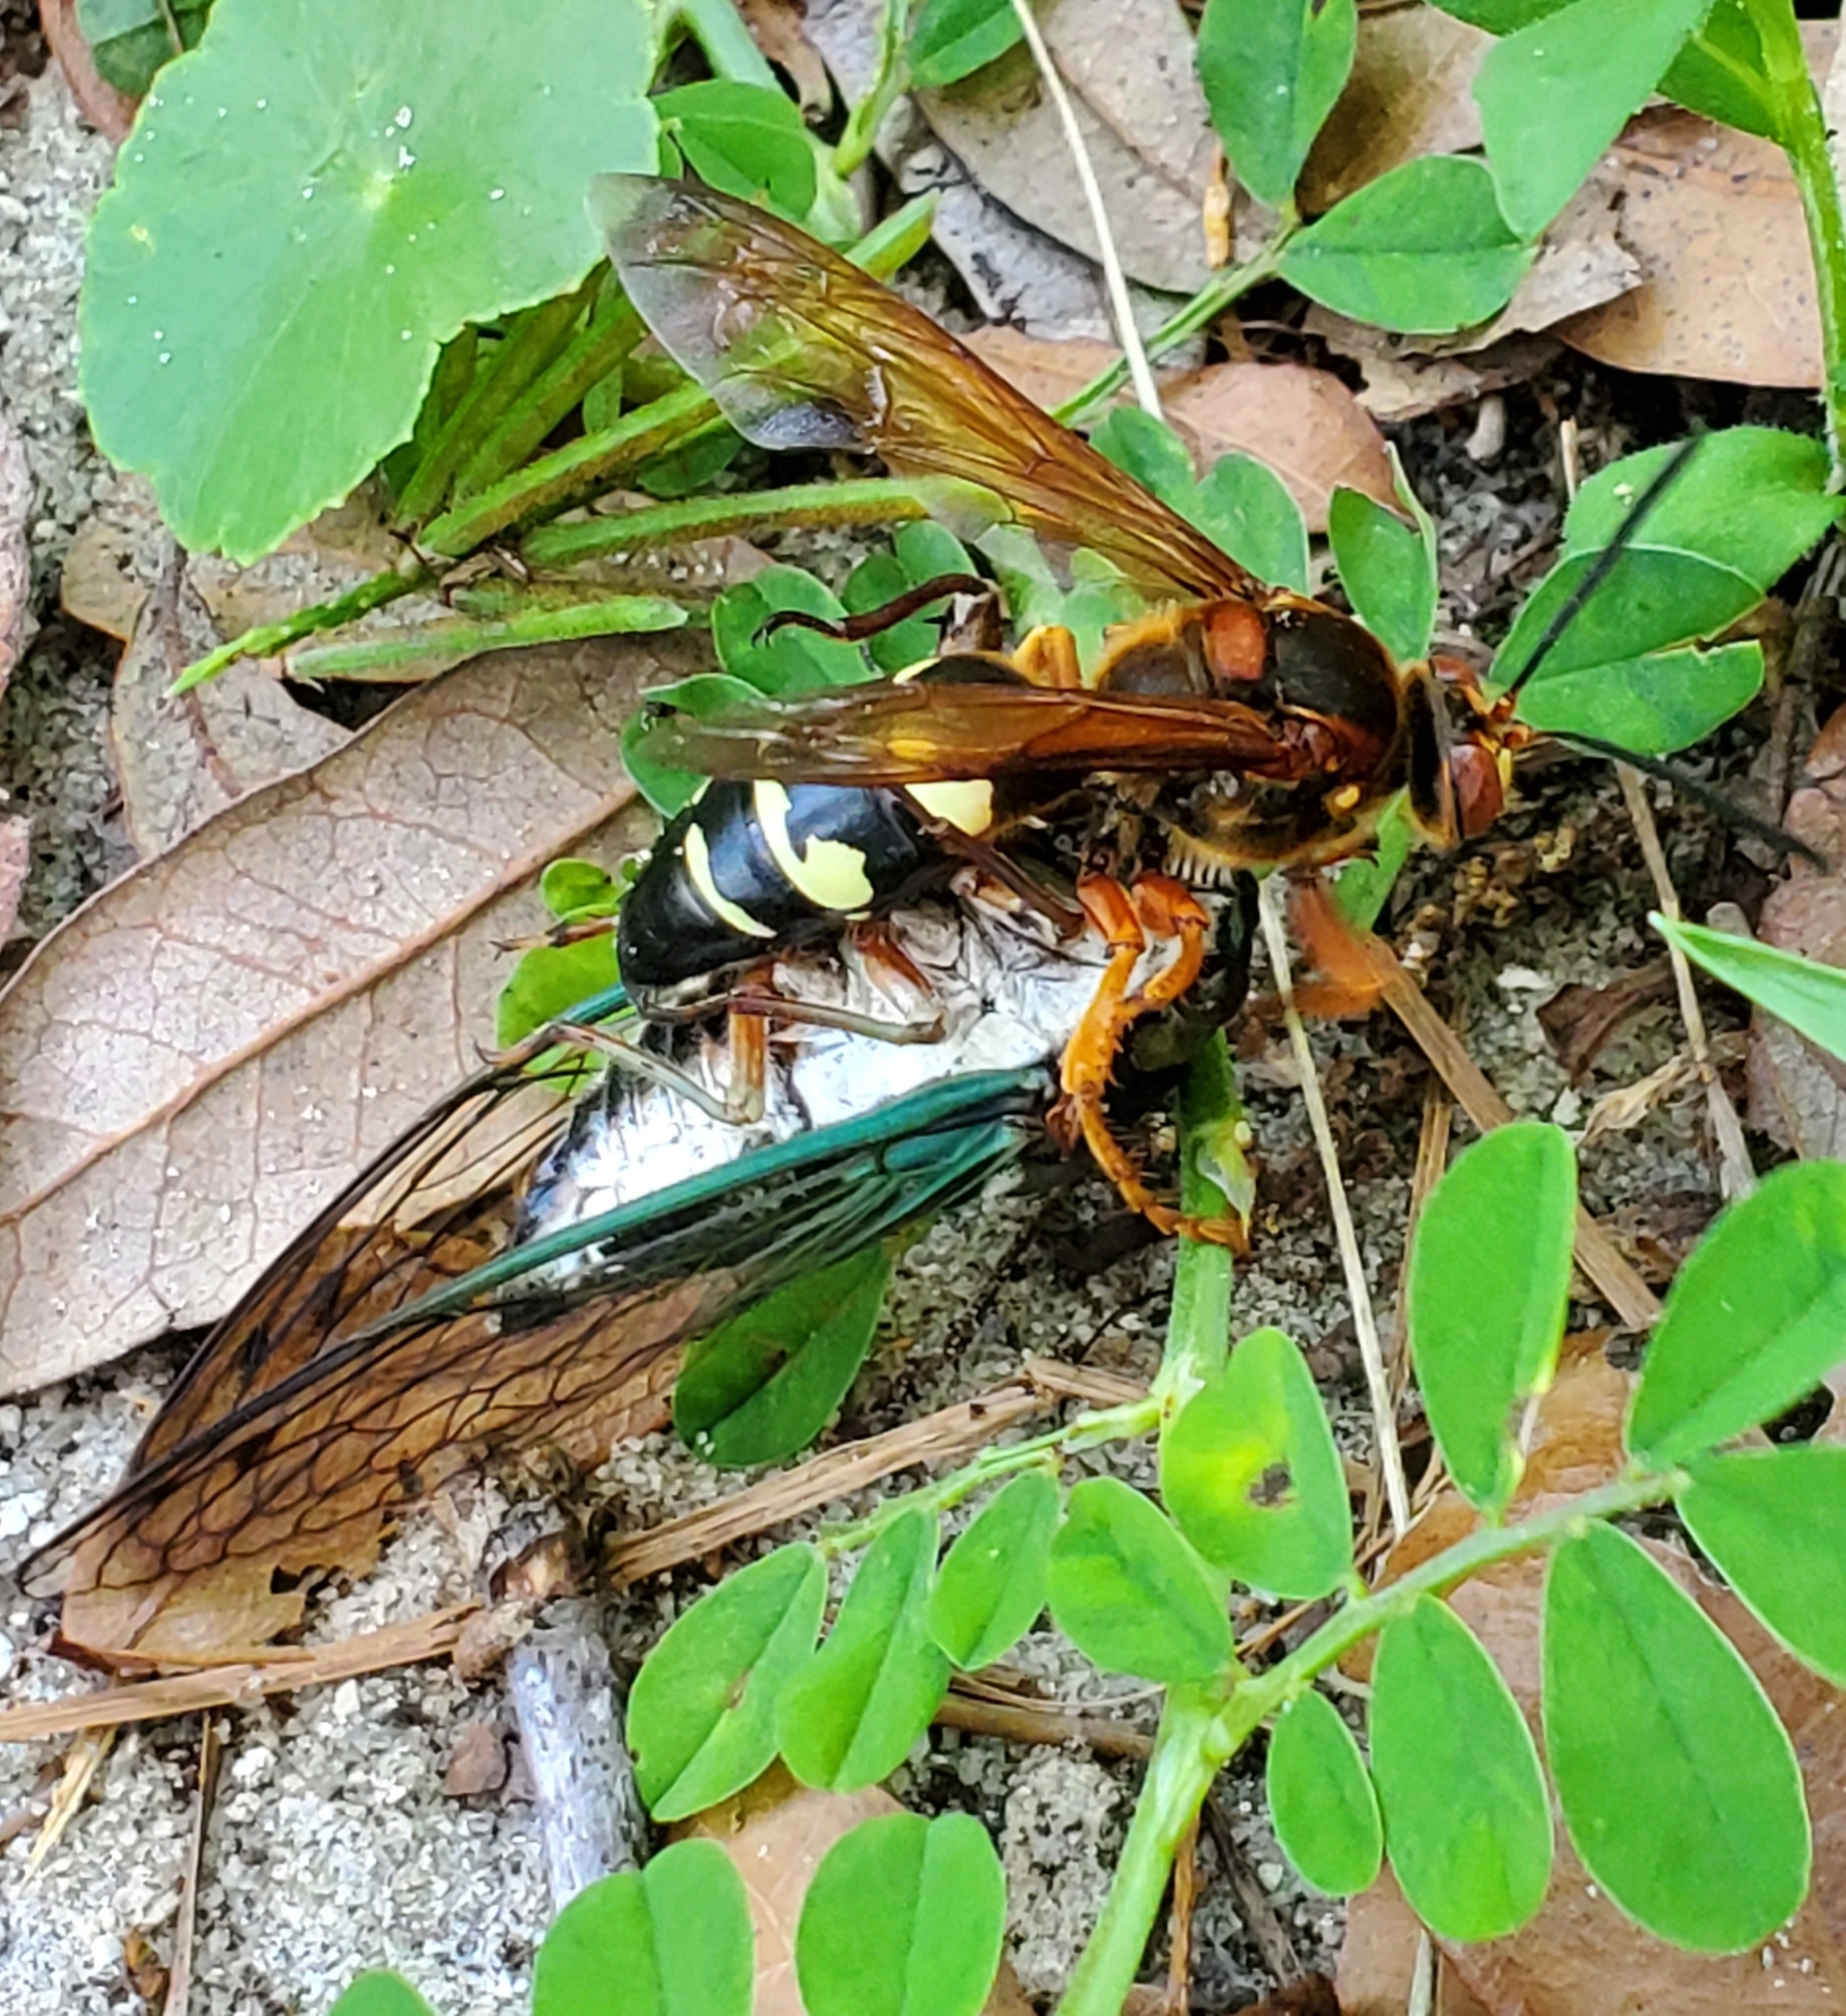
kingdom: Animalia
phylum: Arthropoda
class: Insecta
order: Hymenoptera
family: Crabronidae
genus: Sphecius
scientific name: Sphecius speciosus
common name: Cicada killer
